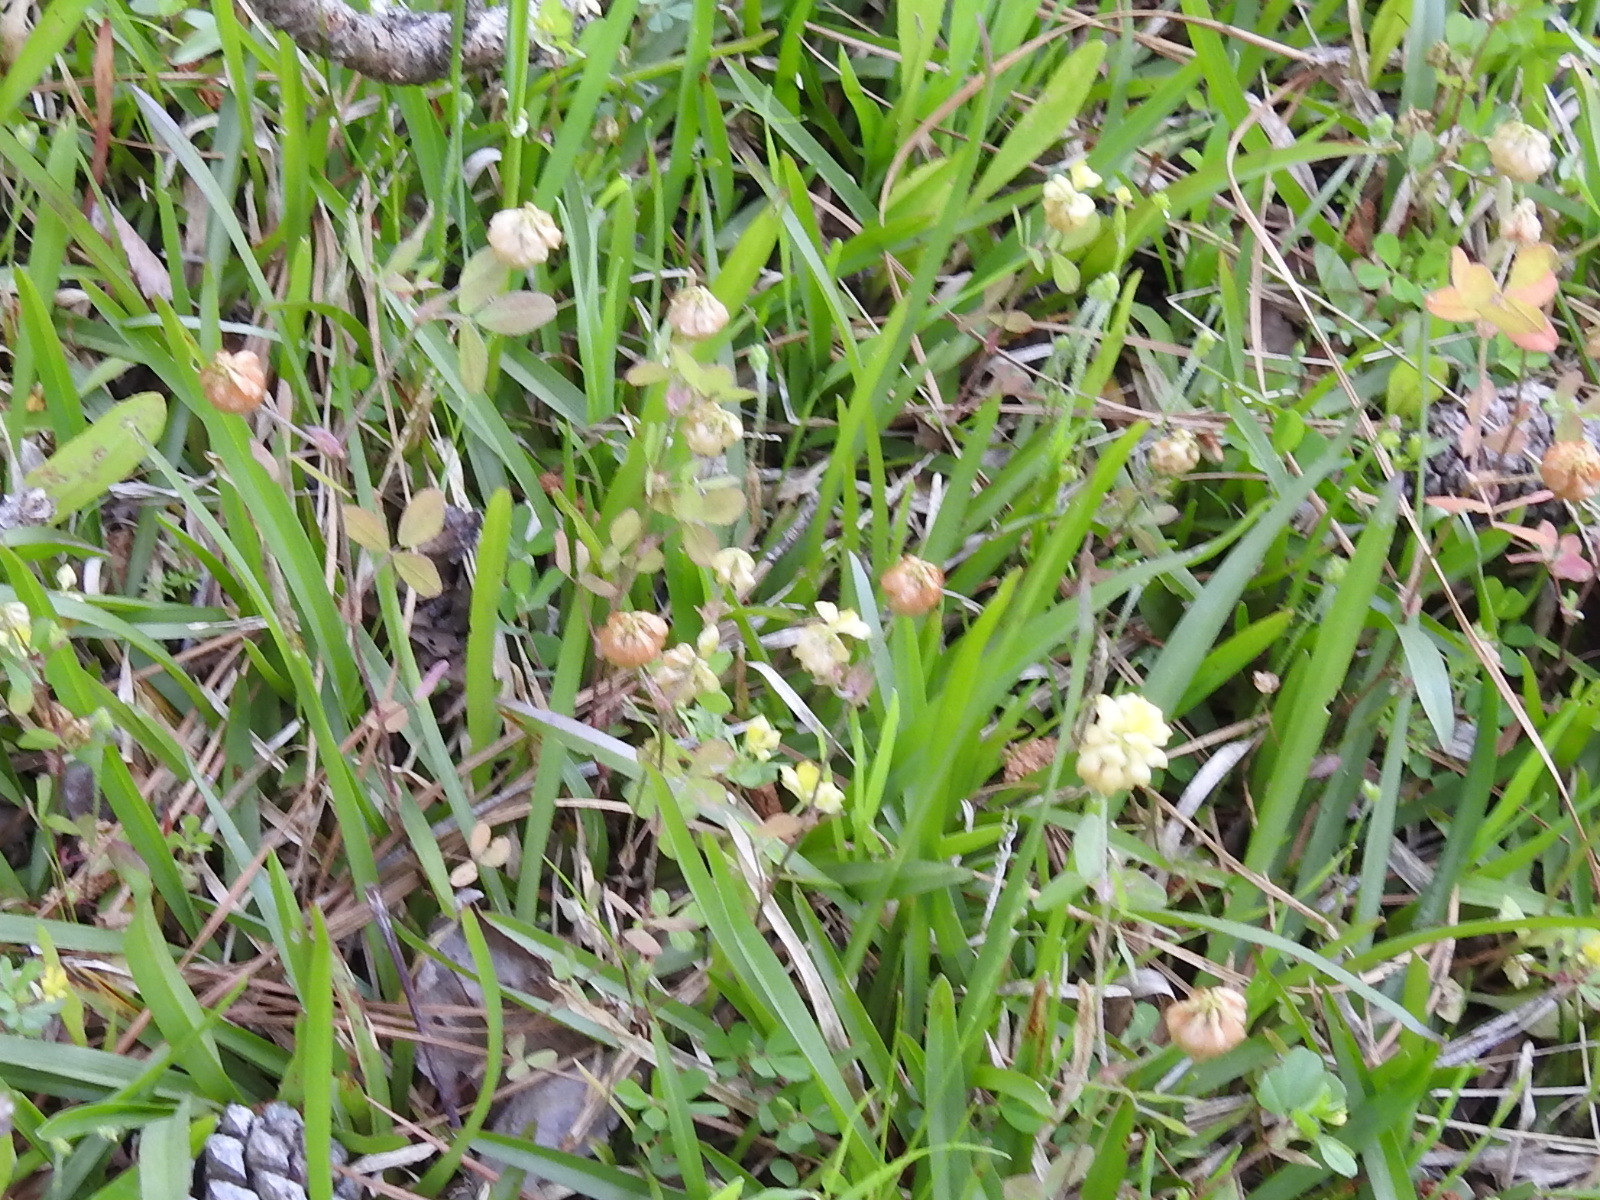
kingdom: Plantae
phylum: Tracheophyta
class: Magnoliopsida
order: Fabales
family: Fabaceae
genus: Trifolium
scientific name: Trifolium campestre
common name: Field clover
